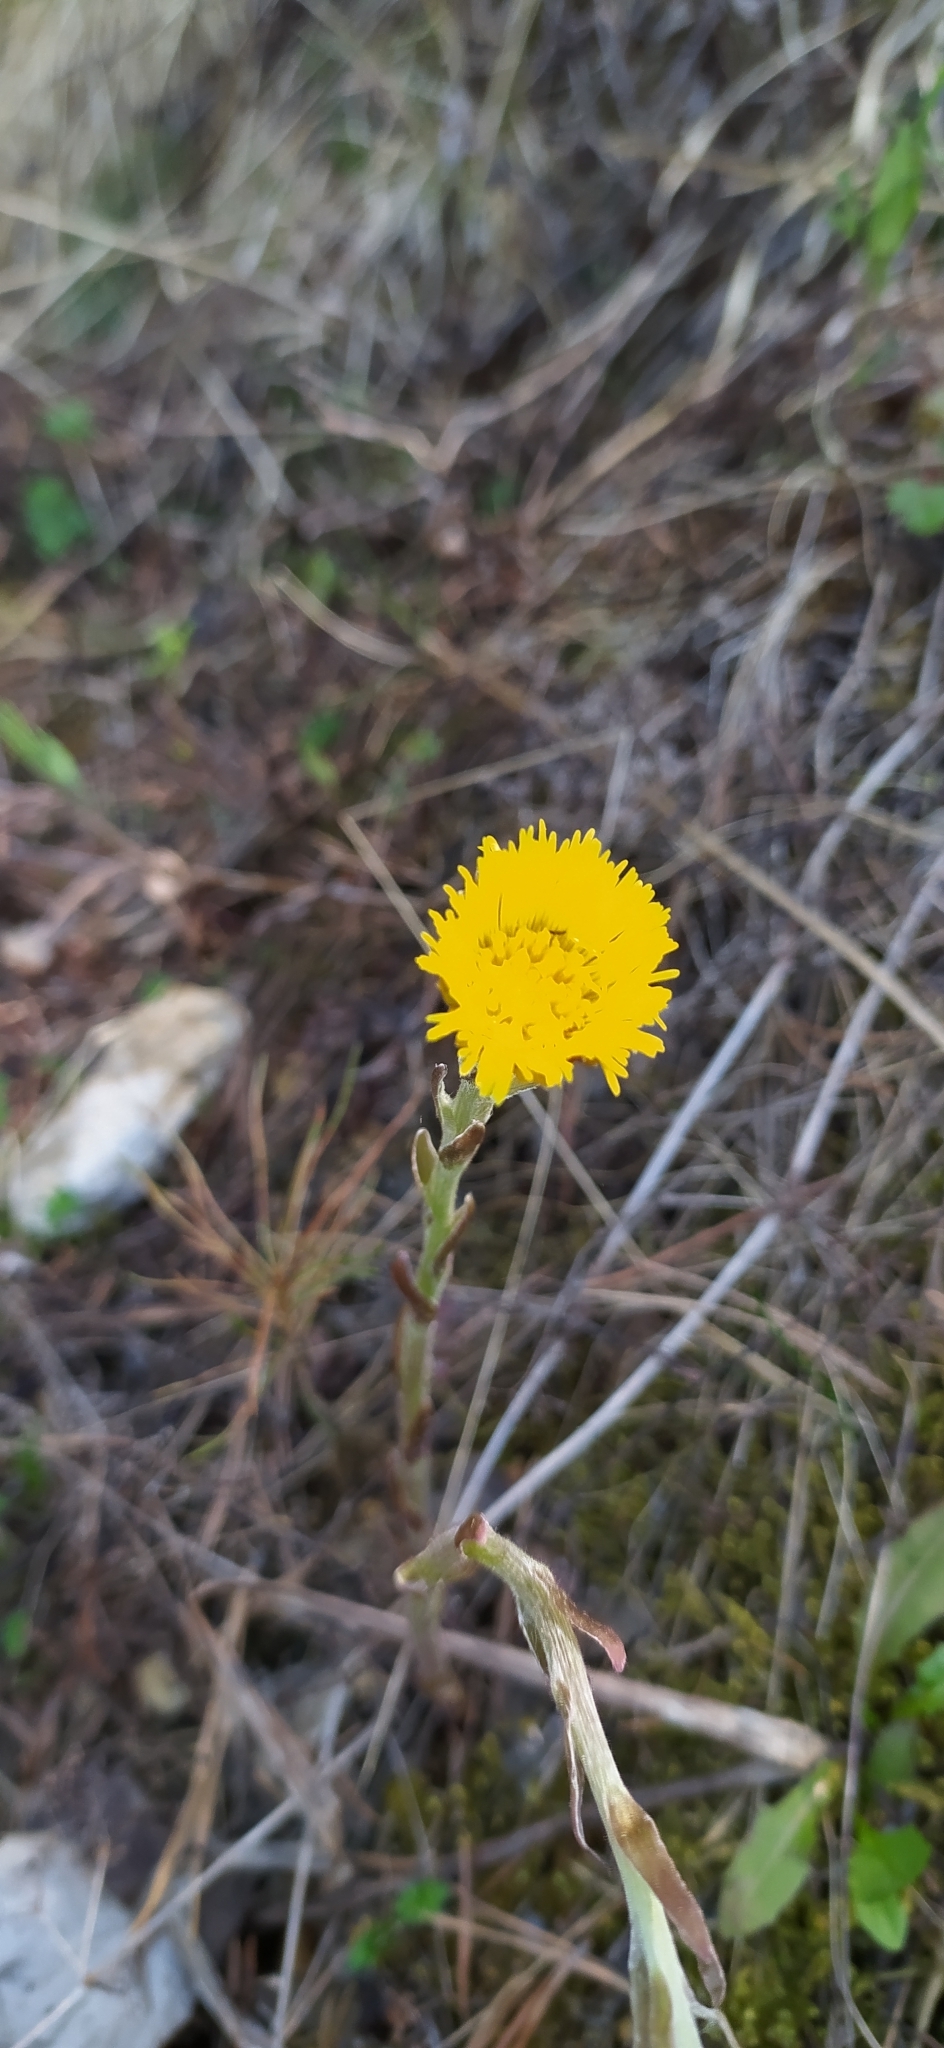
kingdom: Plantae
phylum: Tracheophyta
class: Magnoliopsida
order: Asterales
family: Asteraceae
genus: Tussilago
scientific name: Tussilago farfara
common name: Coltsfoot
